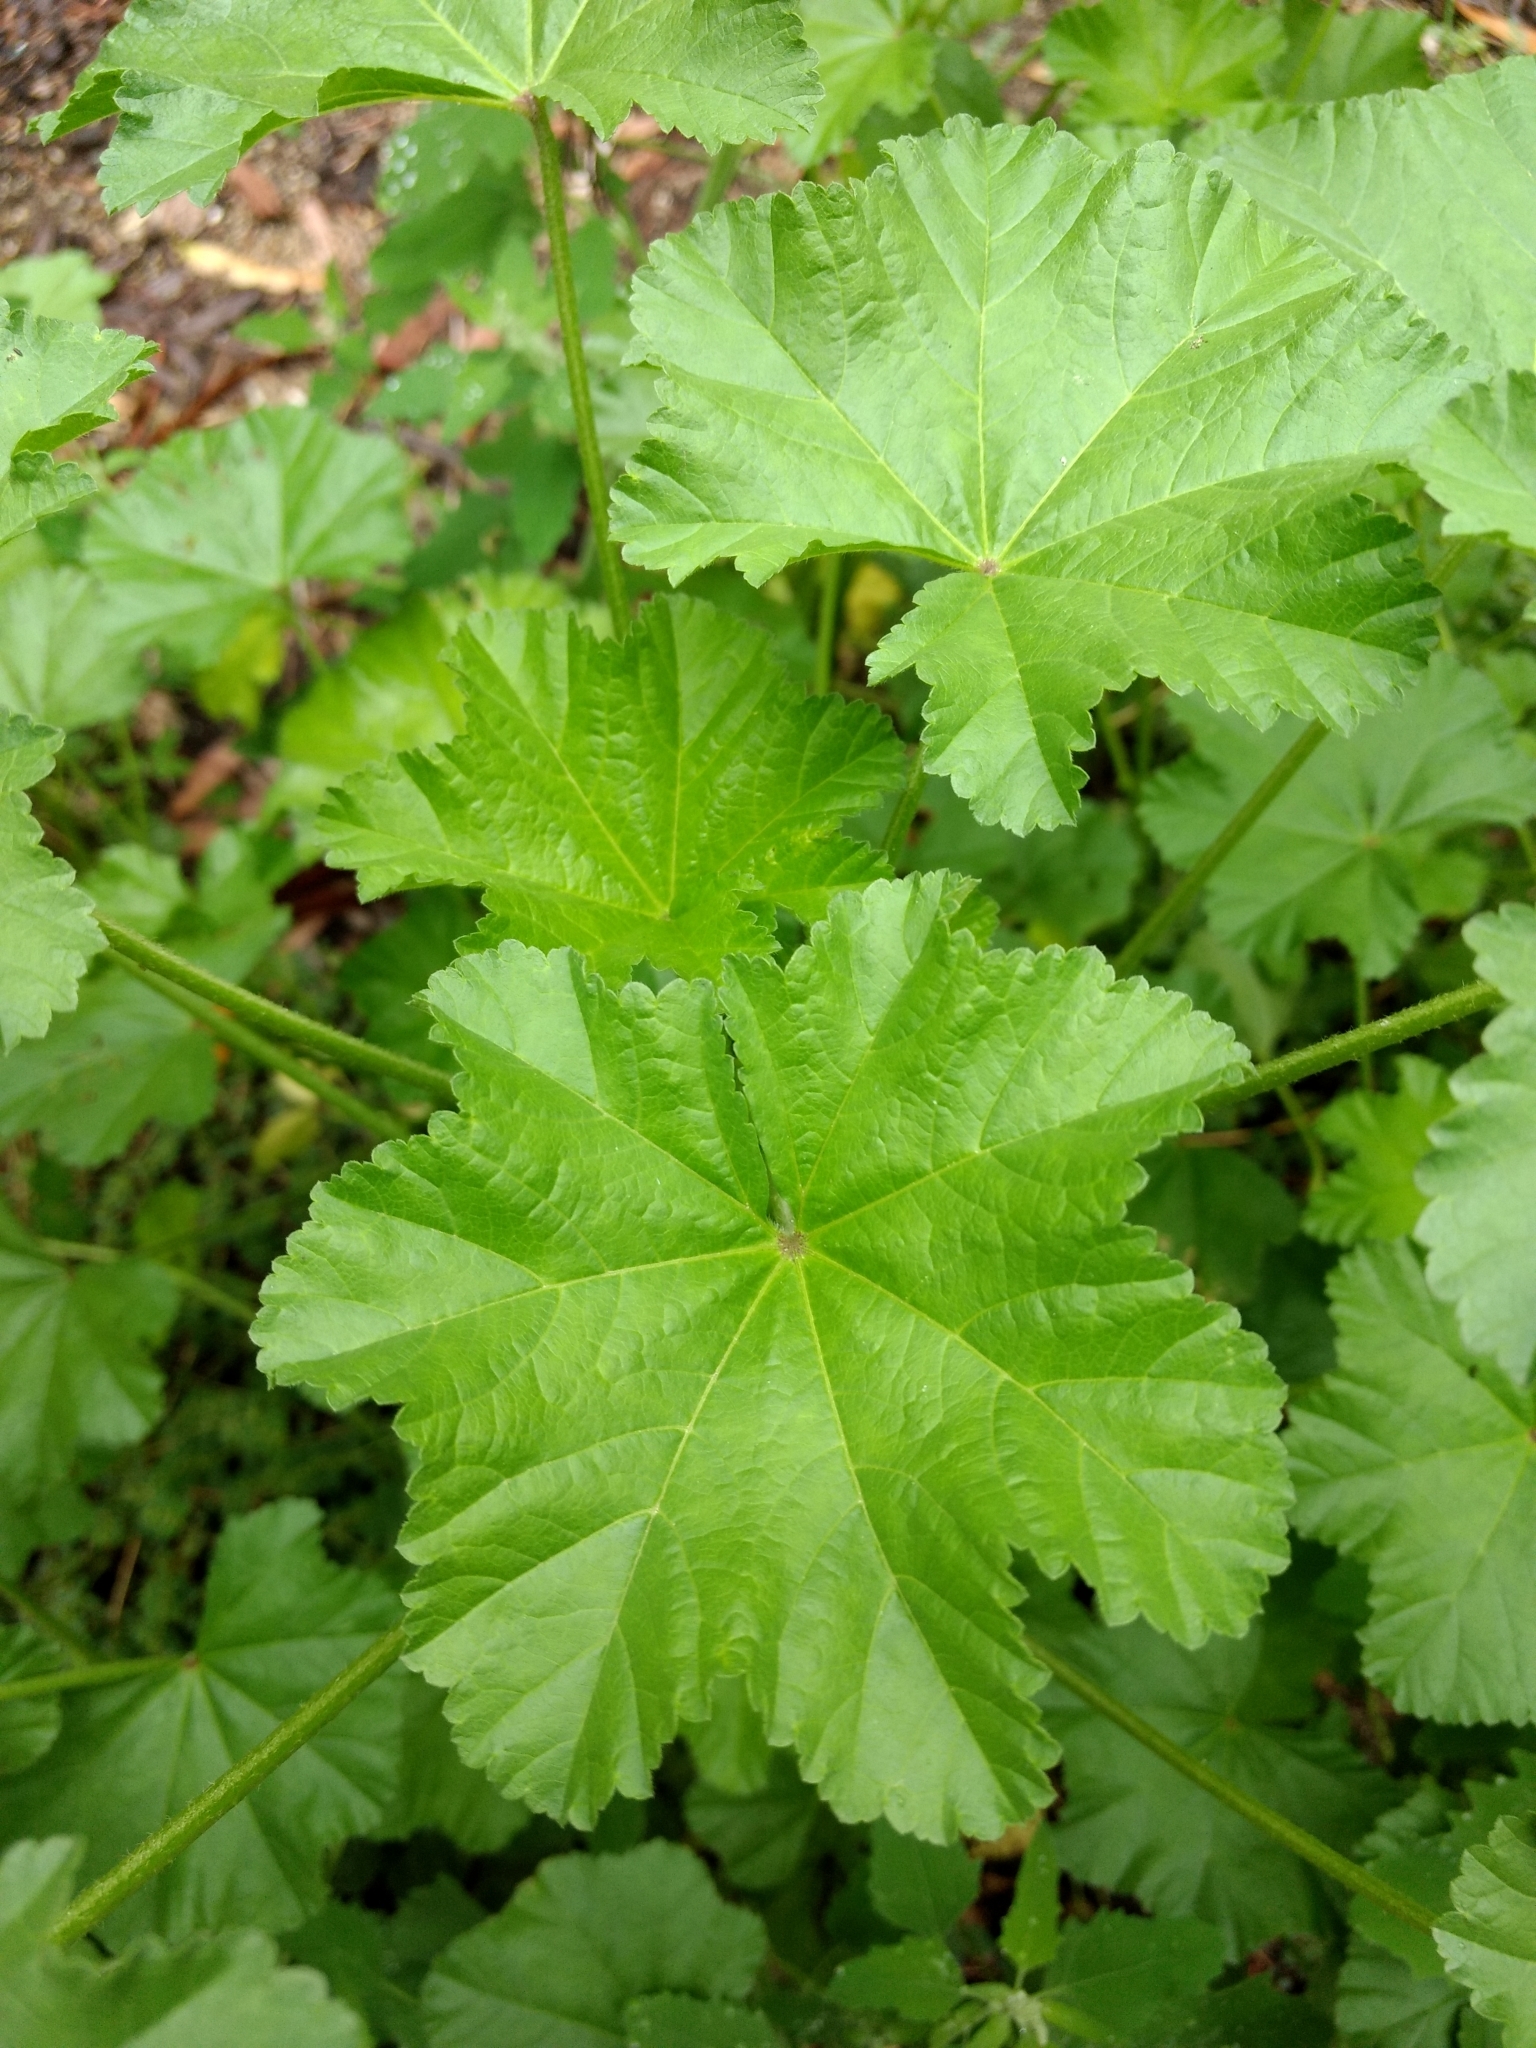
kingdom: Plantae
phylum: Tracheophyta
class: Magnoliopsida
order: Malvales
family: Malvaceae
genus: Malva
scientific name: Malva parviflora
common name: Least mallow
